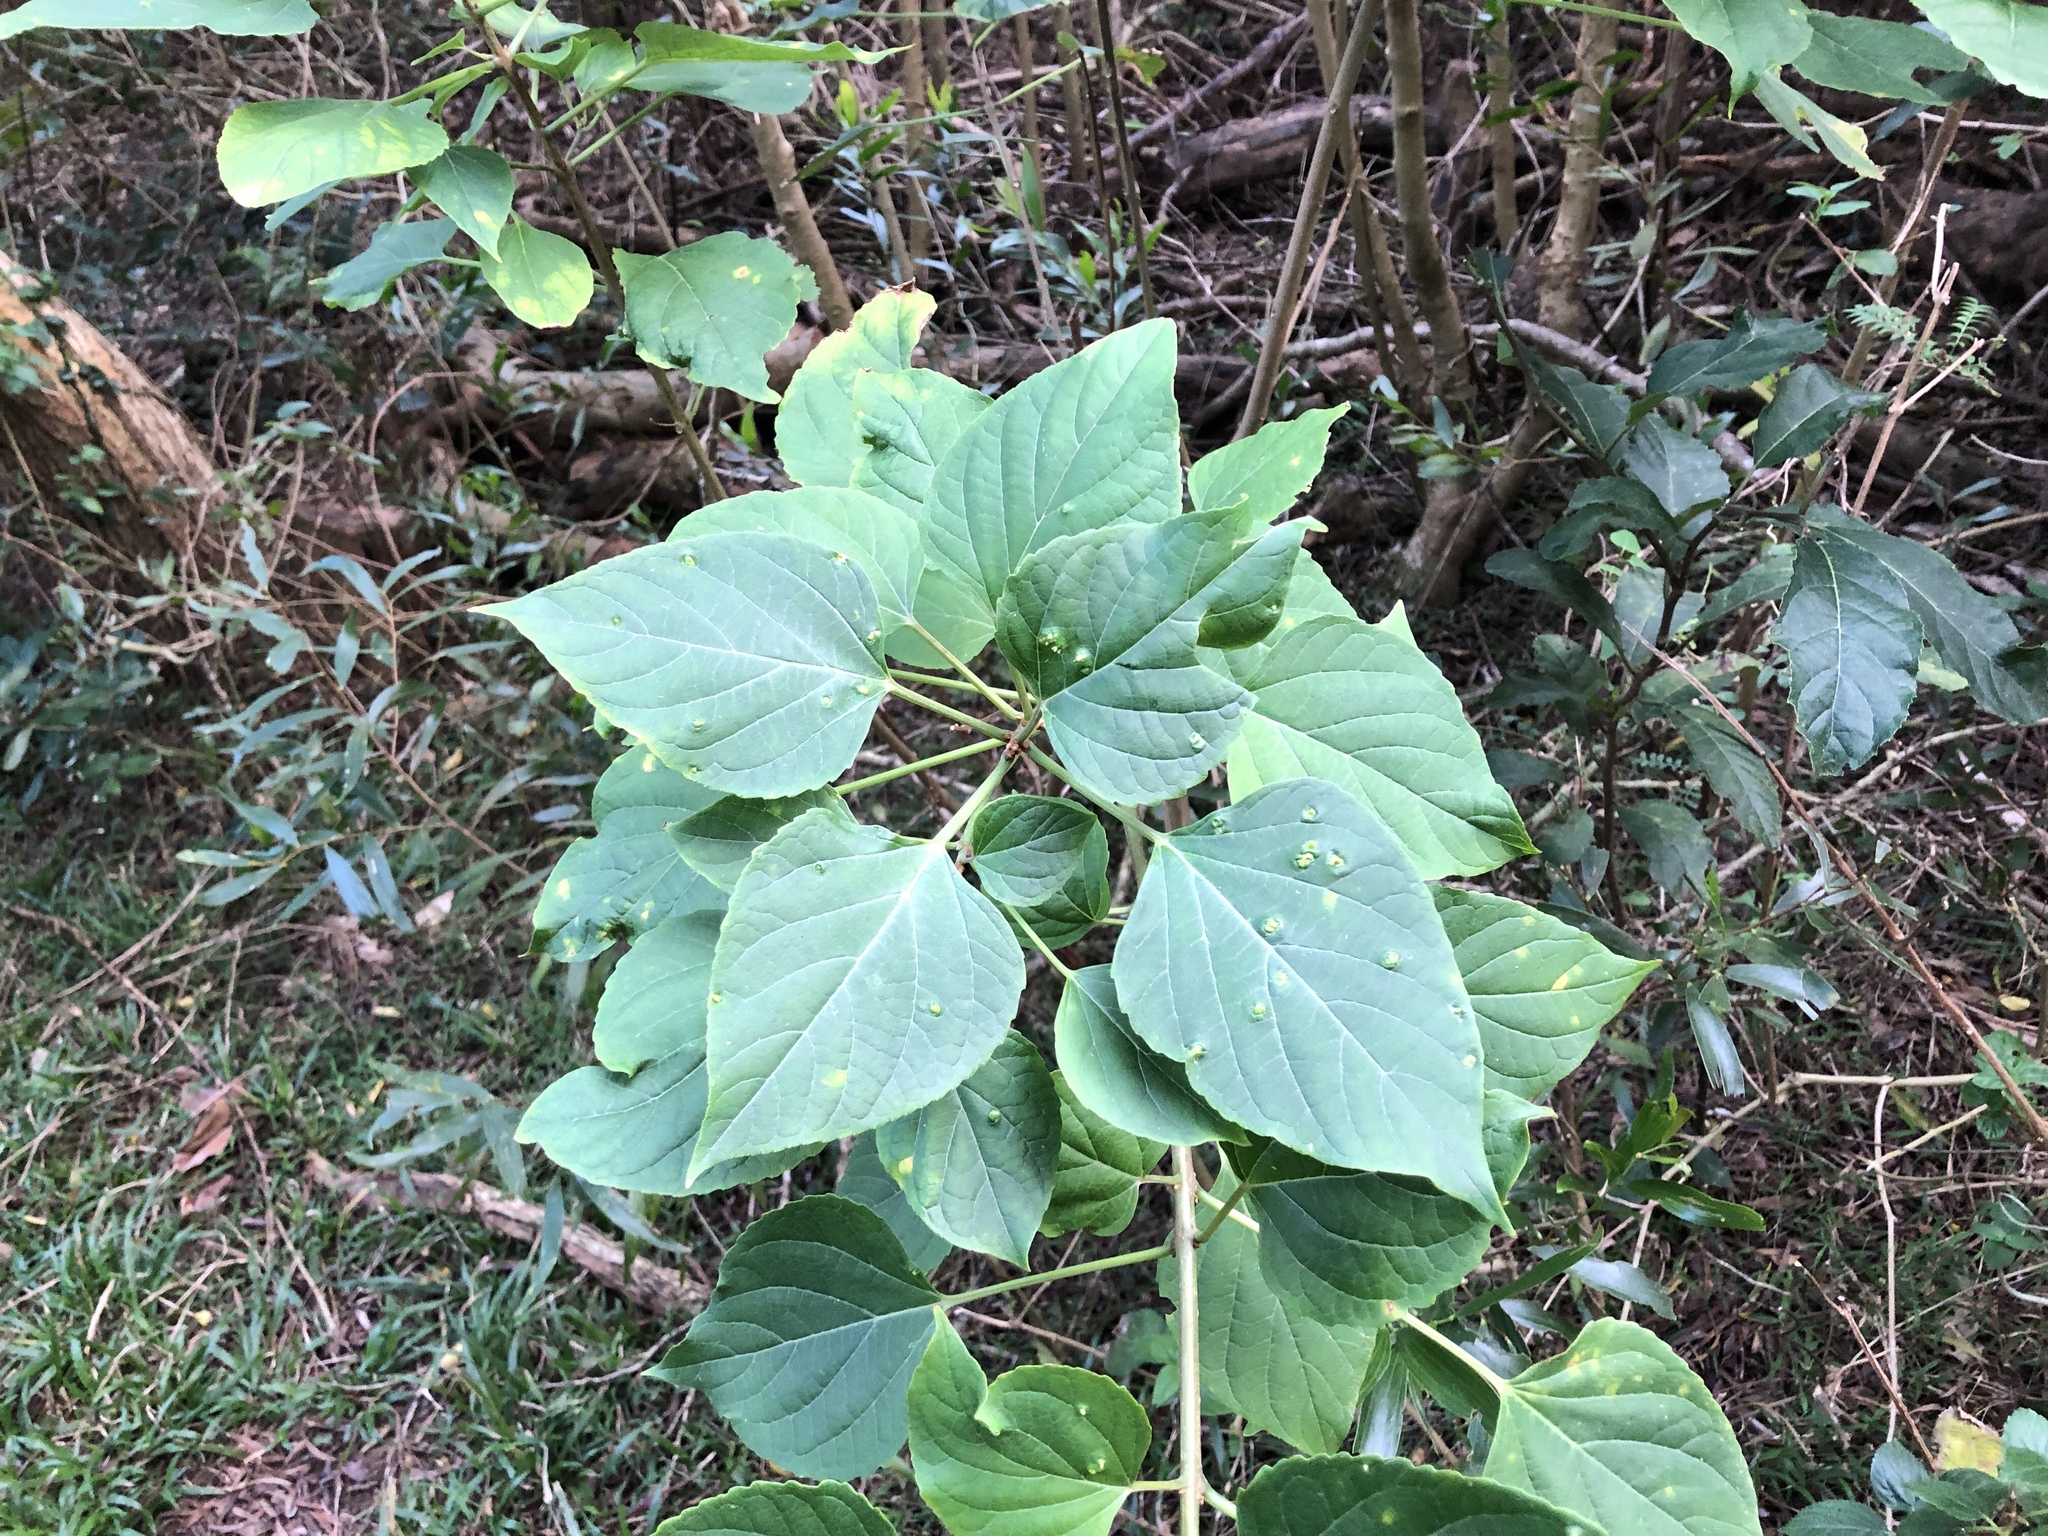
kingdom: Plantae
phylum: Tracheophyta
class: Magnoliopsida
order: Lamiales
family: Lamiaceae
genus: Clerodendrum
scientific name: Clerodendrum trichotomum
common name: Harlequin glorybower
